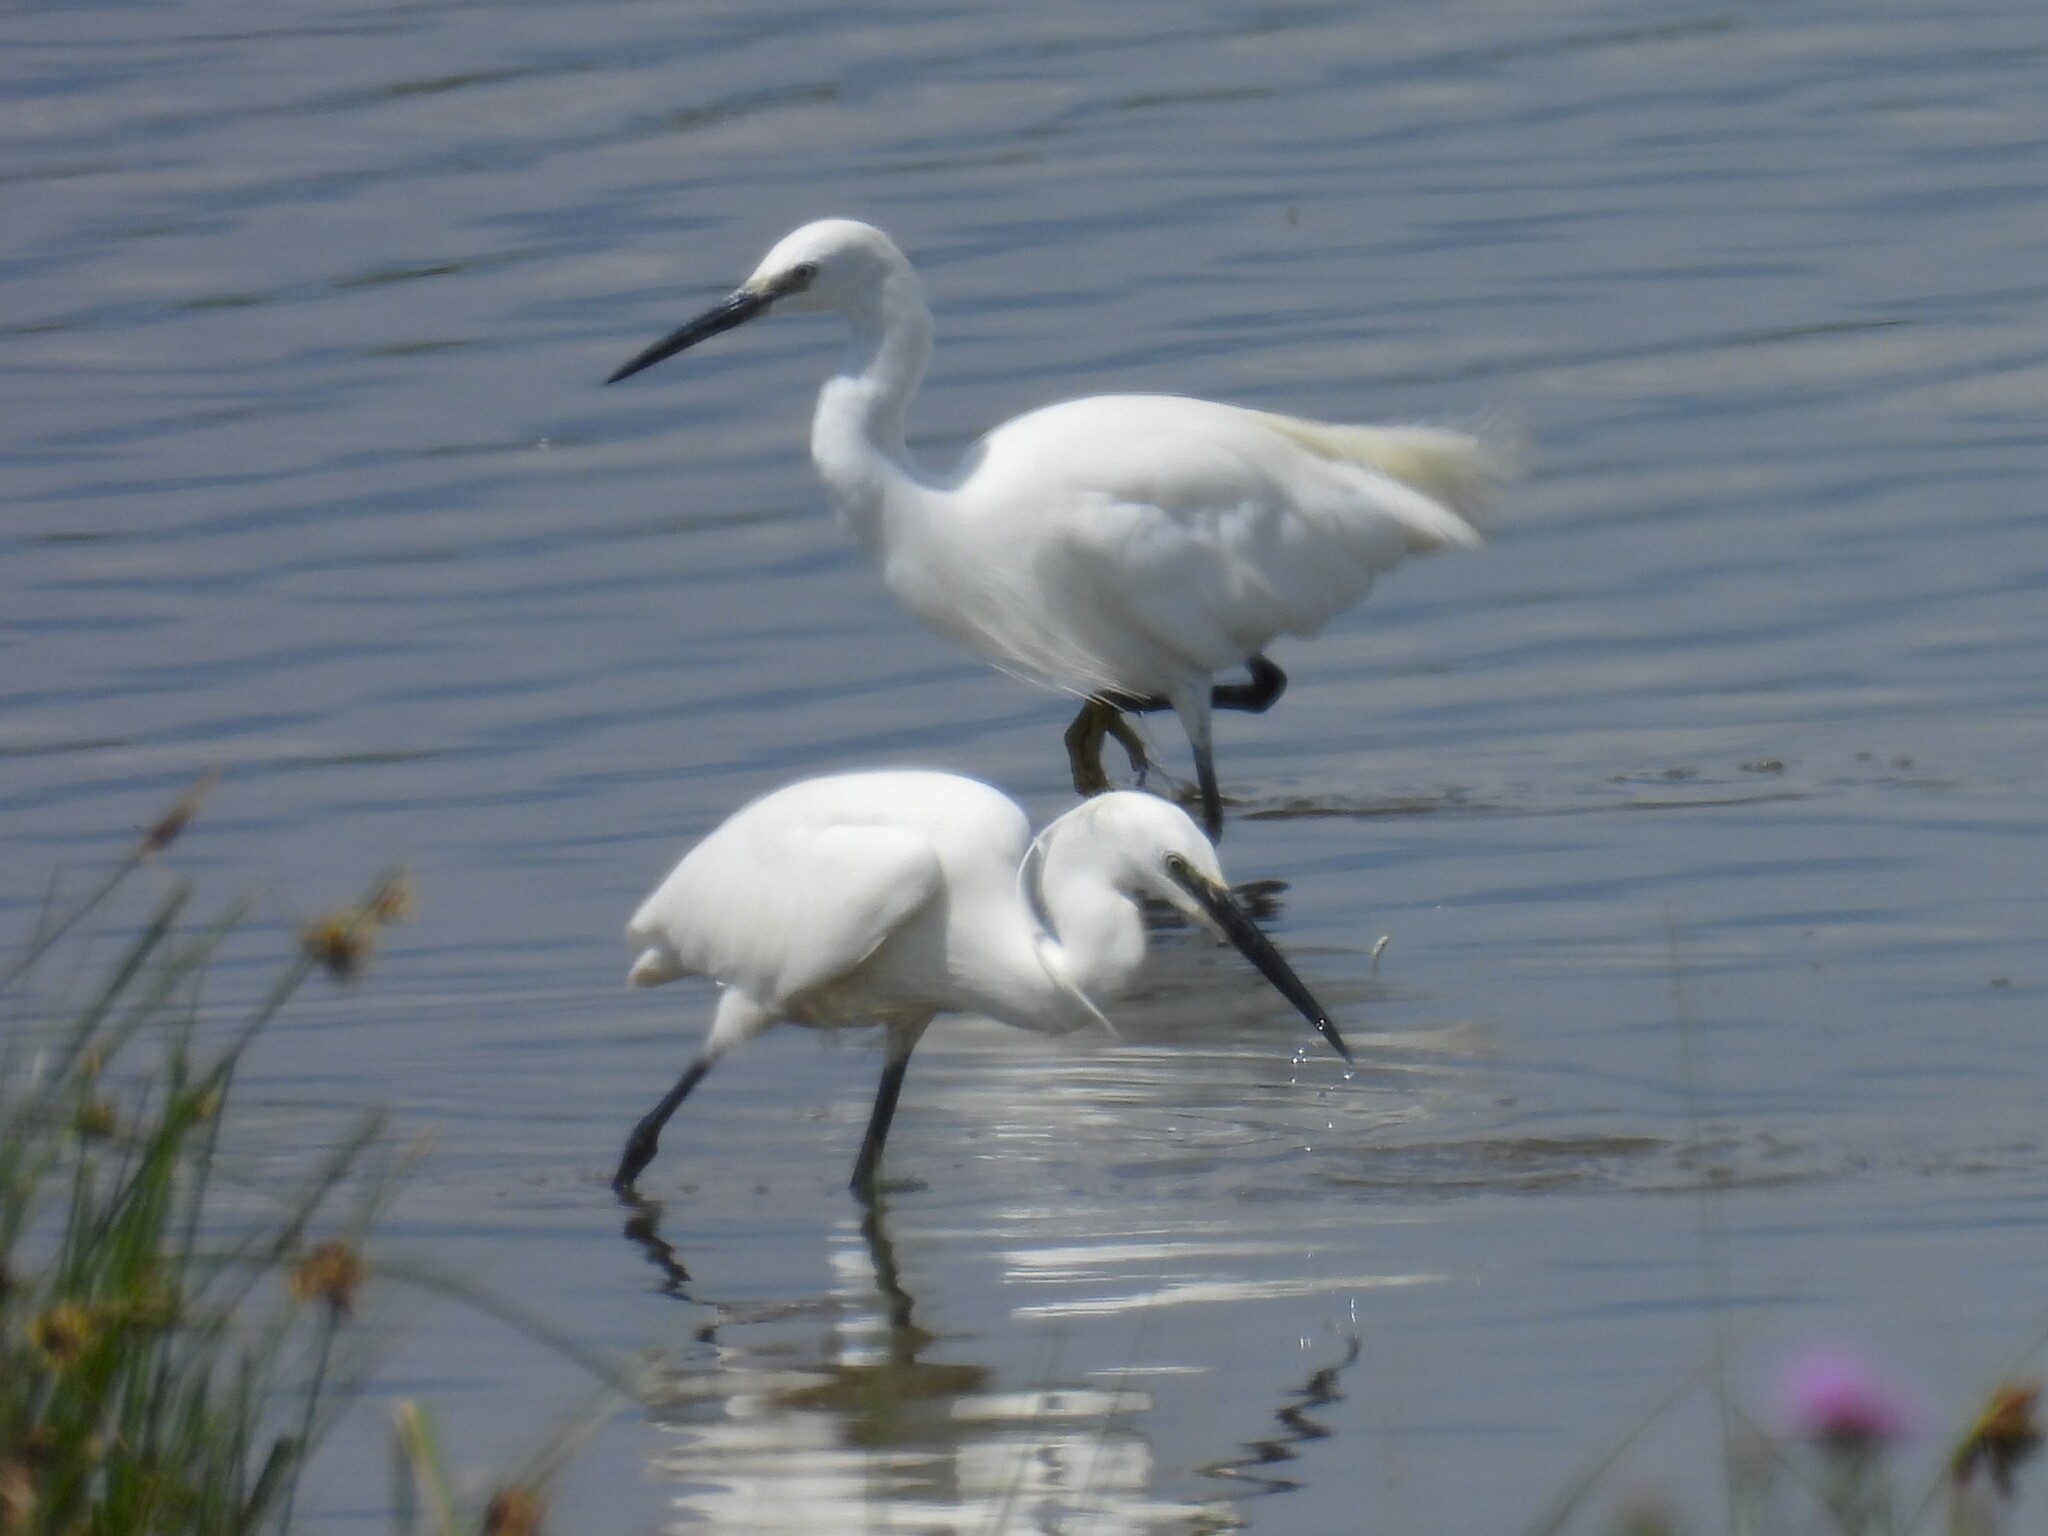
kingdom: Animalia
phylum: Chordata
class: Aves
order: Pelecaniformes
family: Ardeidae
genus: Egretta
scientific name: Egretta garzetta
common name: Little egret
